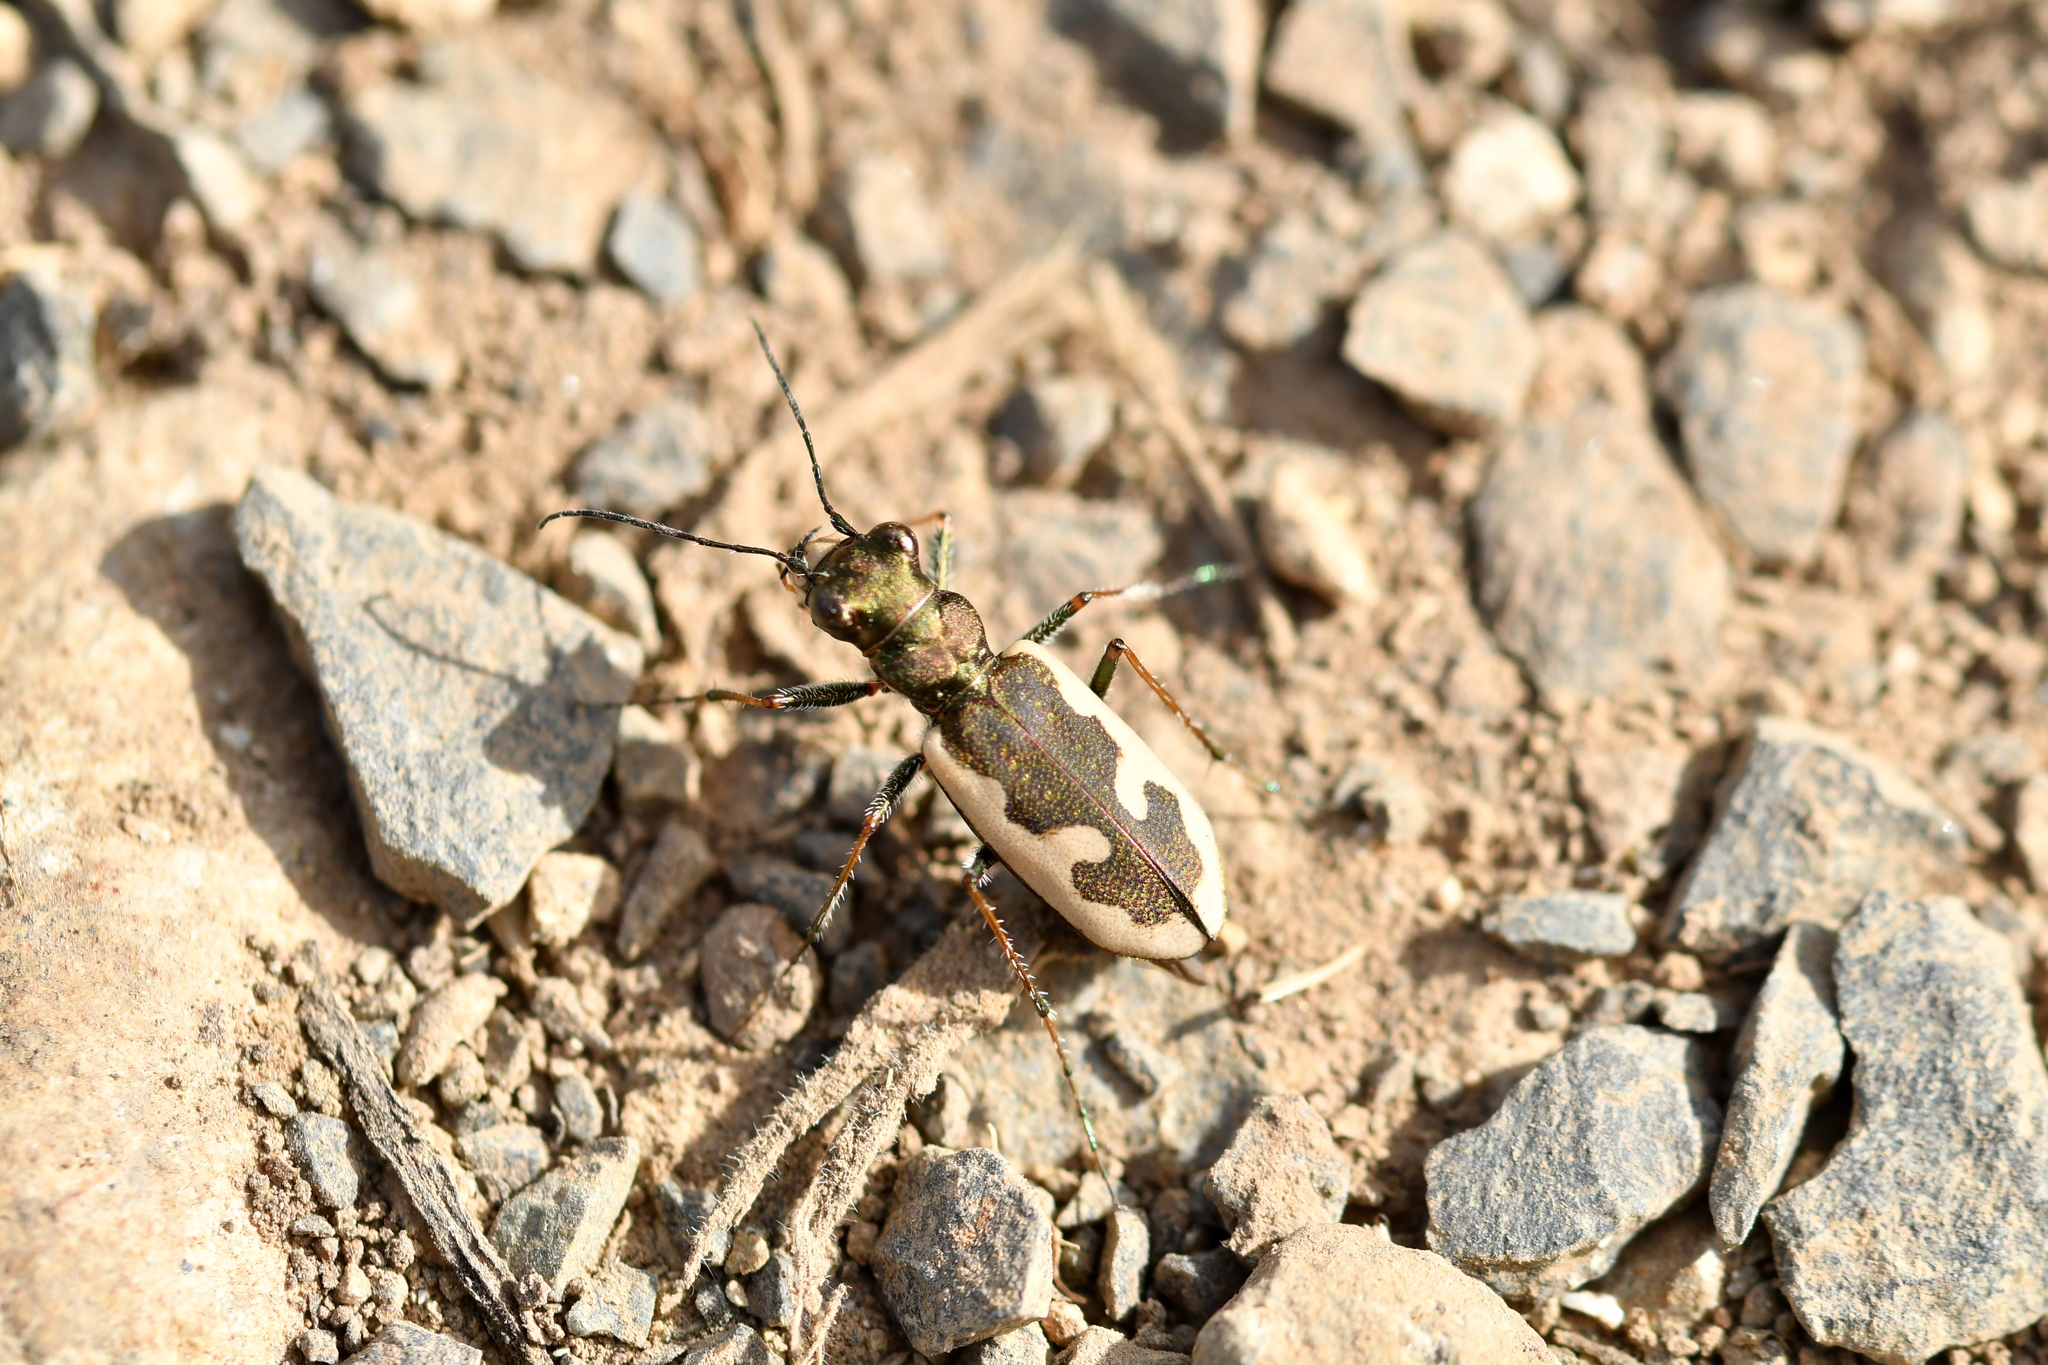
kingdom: Animalia
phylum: Arthropoda
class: Insecta
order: Coleoptera
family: Carabidae
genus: Neocicindela
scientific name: Neocicindela latecincta
